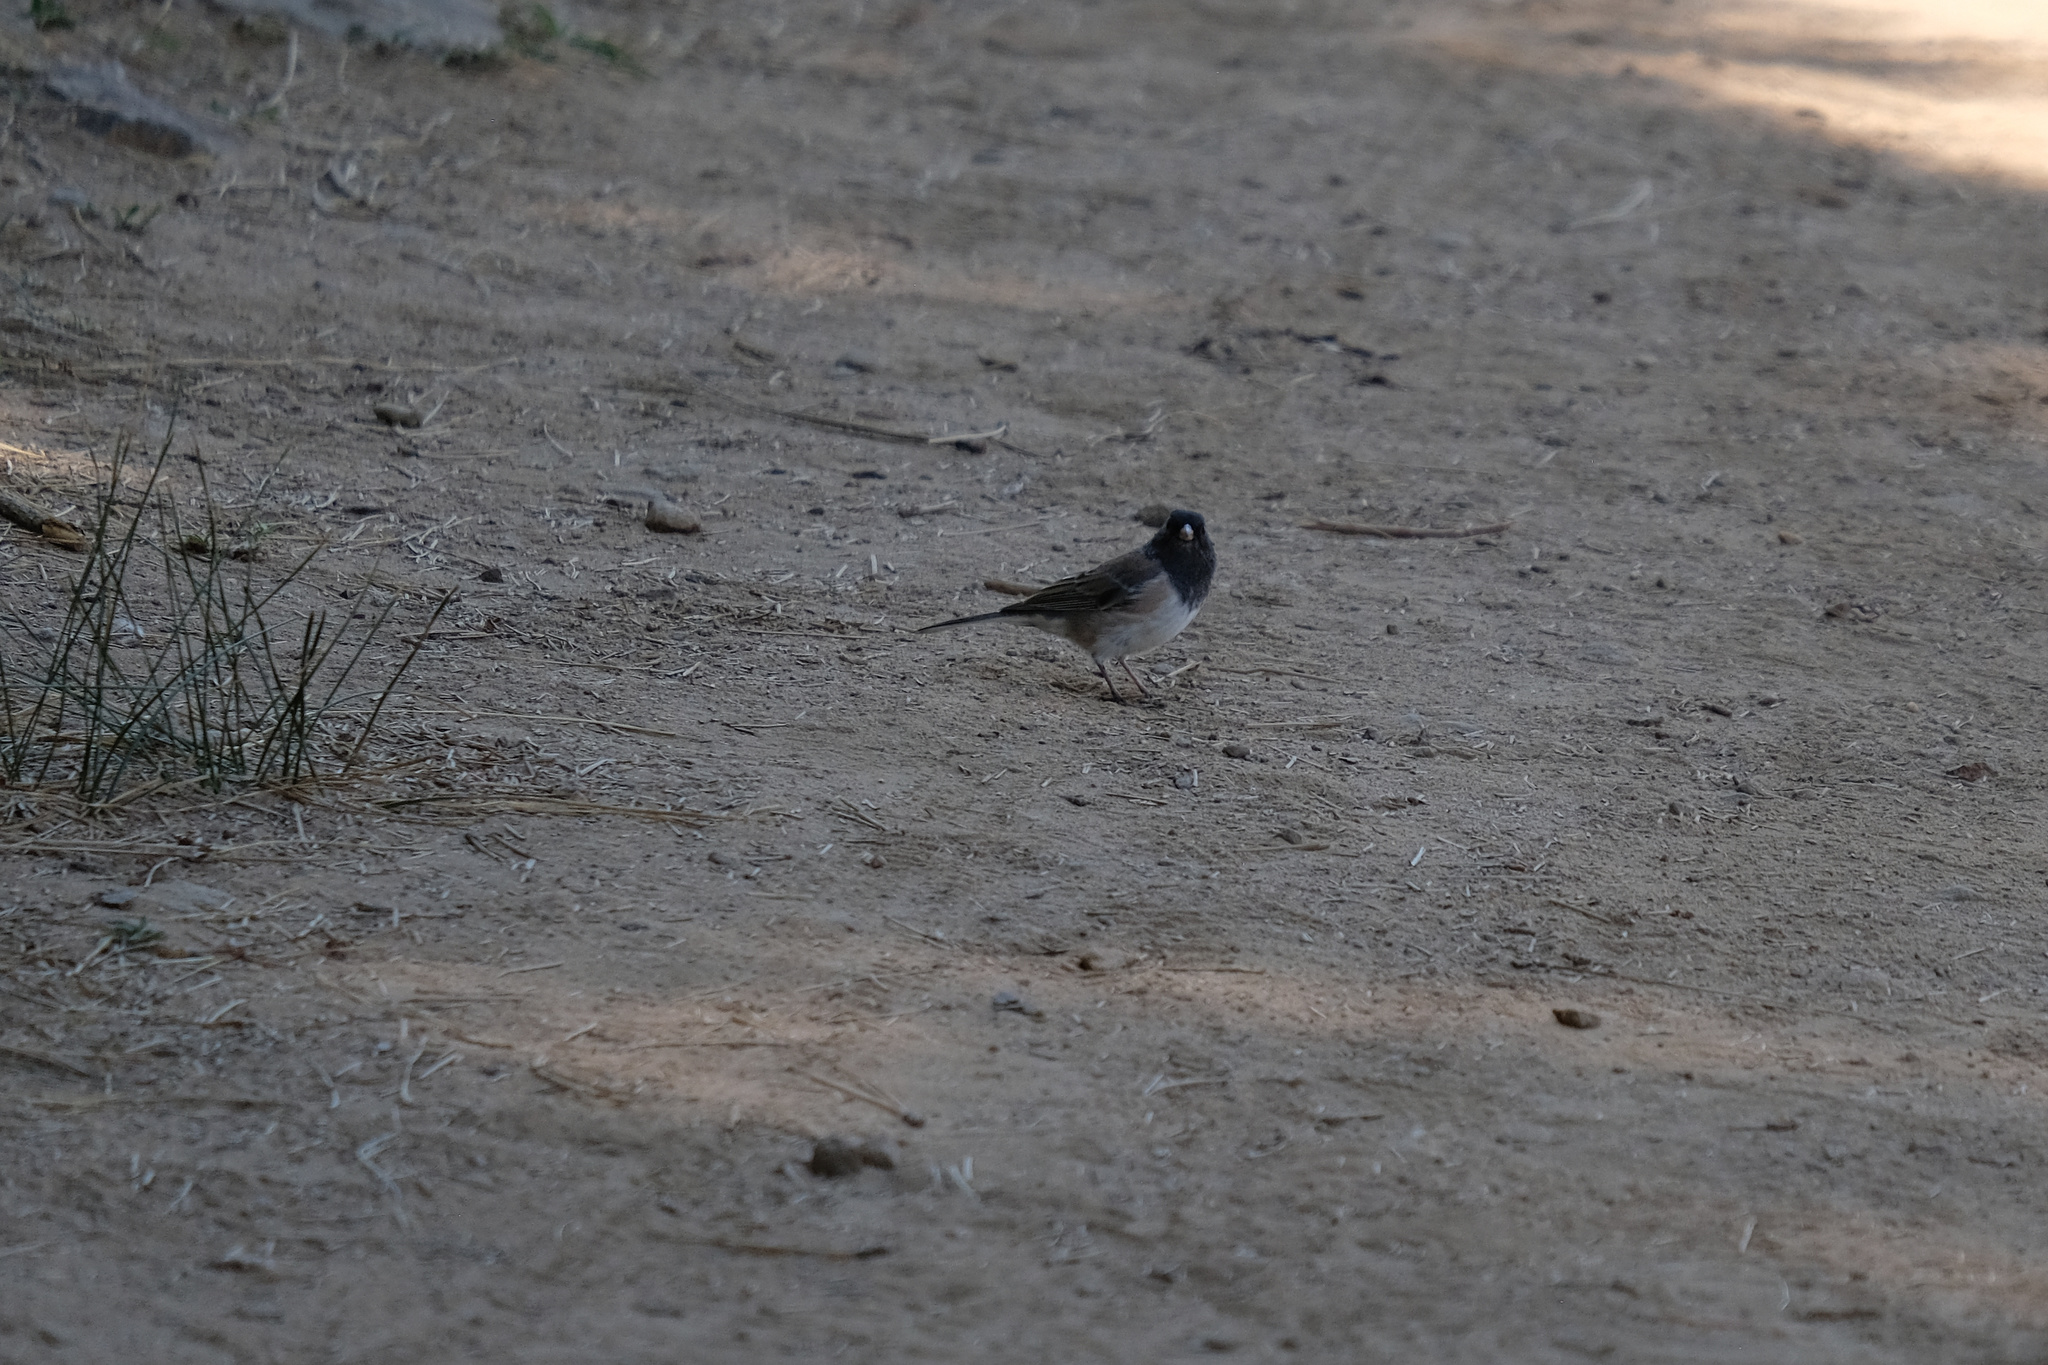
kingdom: Animalia
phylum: Chordata
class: Aves
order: Passeriformes
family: Passerellidae
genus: Junco
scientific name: Junco hyemalis
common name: Dark-eyed junco
